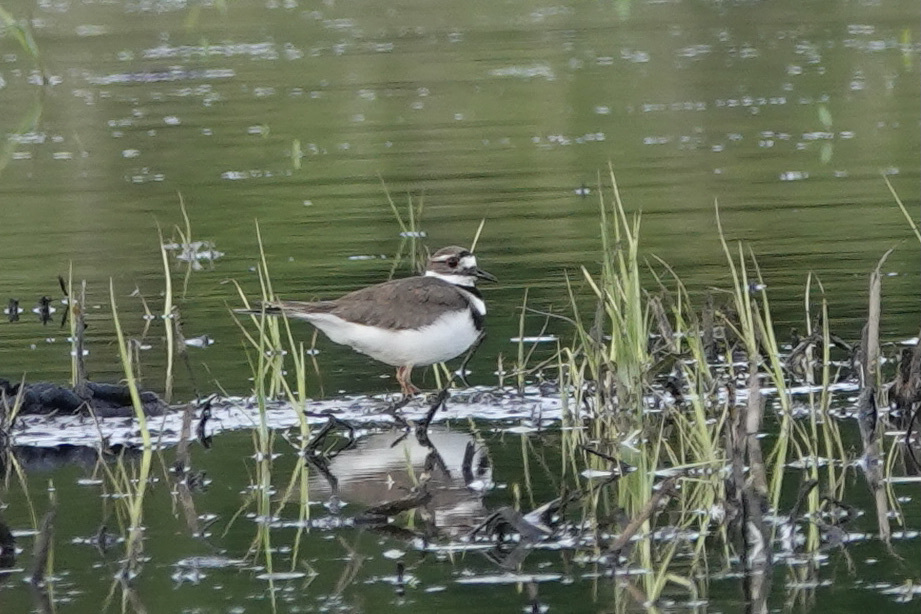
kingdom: Animalia
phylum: Chordata
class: Aves
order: Charadriiformes
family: Charadriidae
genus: Charadrius
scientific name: Charadrius vociferus
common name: Killdeer
